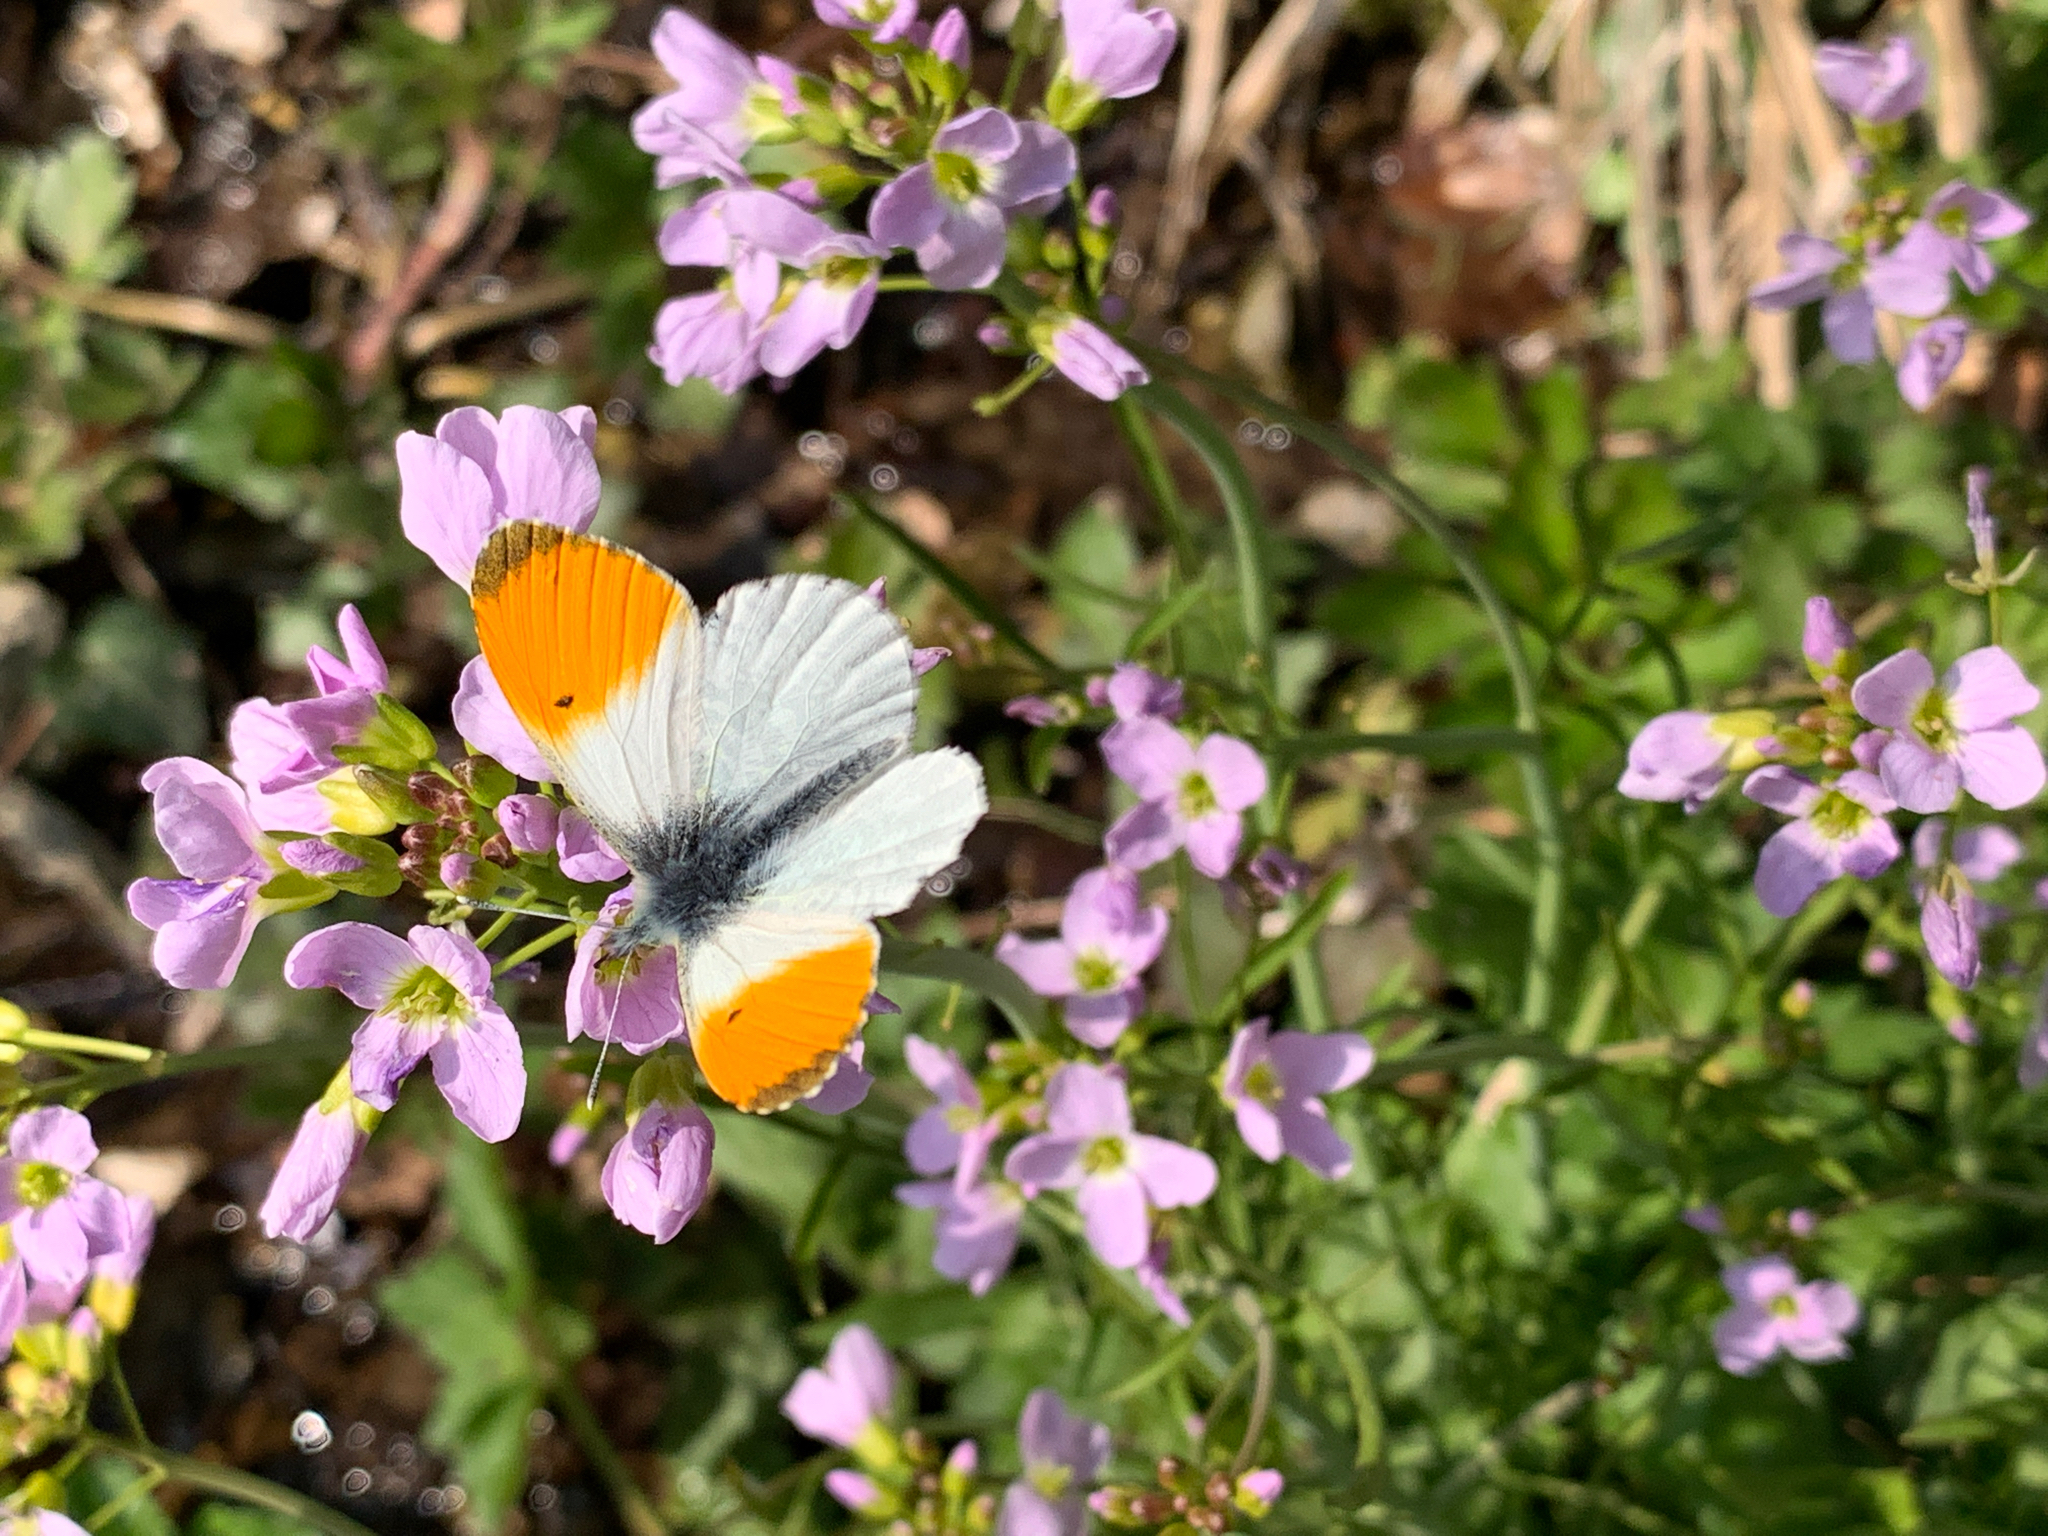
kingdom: Animalia
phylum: Arthropoda
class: Insecta
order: Lepidoptera
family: Pieridae
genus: Anthocharis
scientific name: Anthocharis cardamines
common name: Orange-tip
